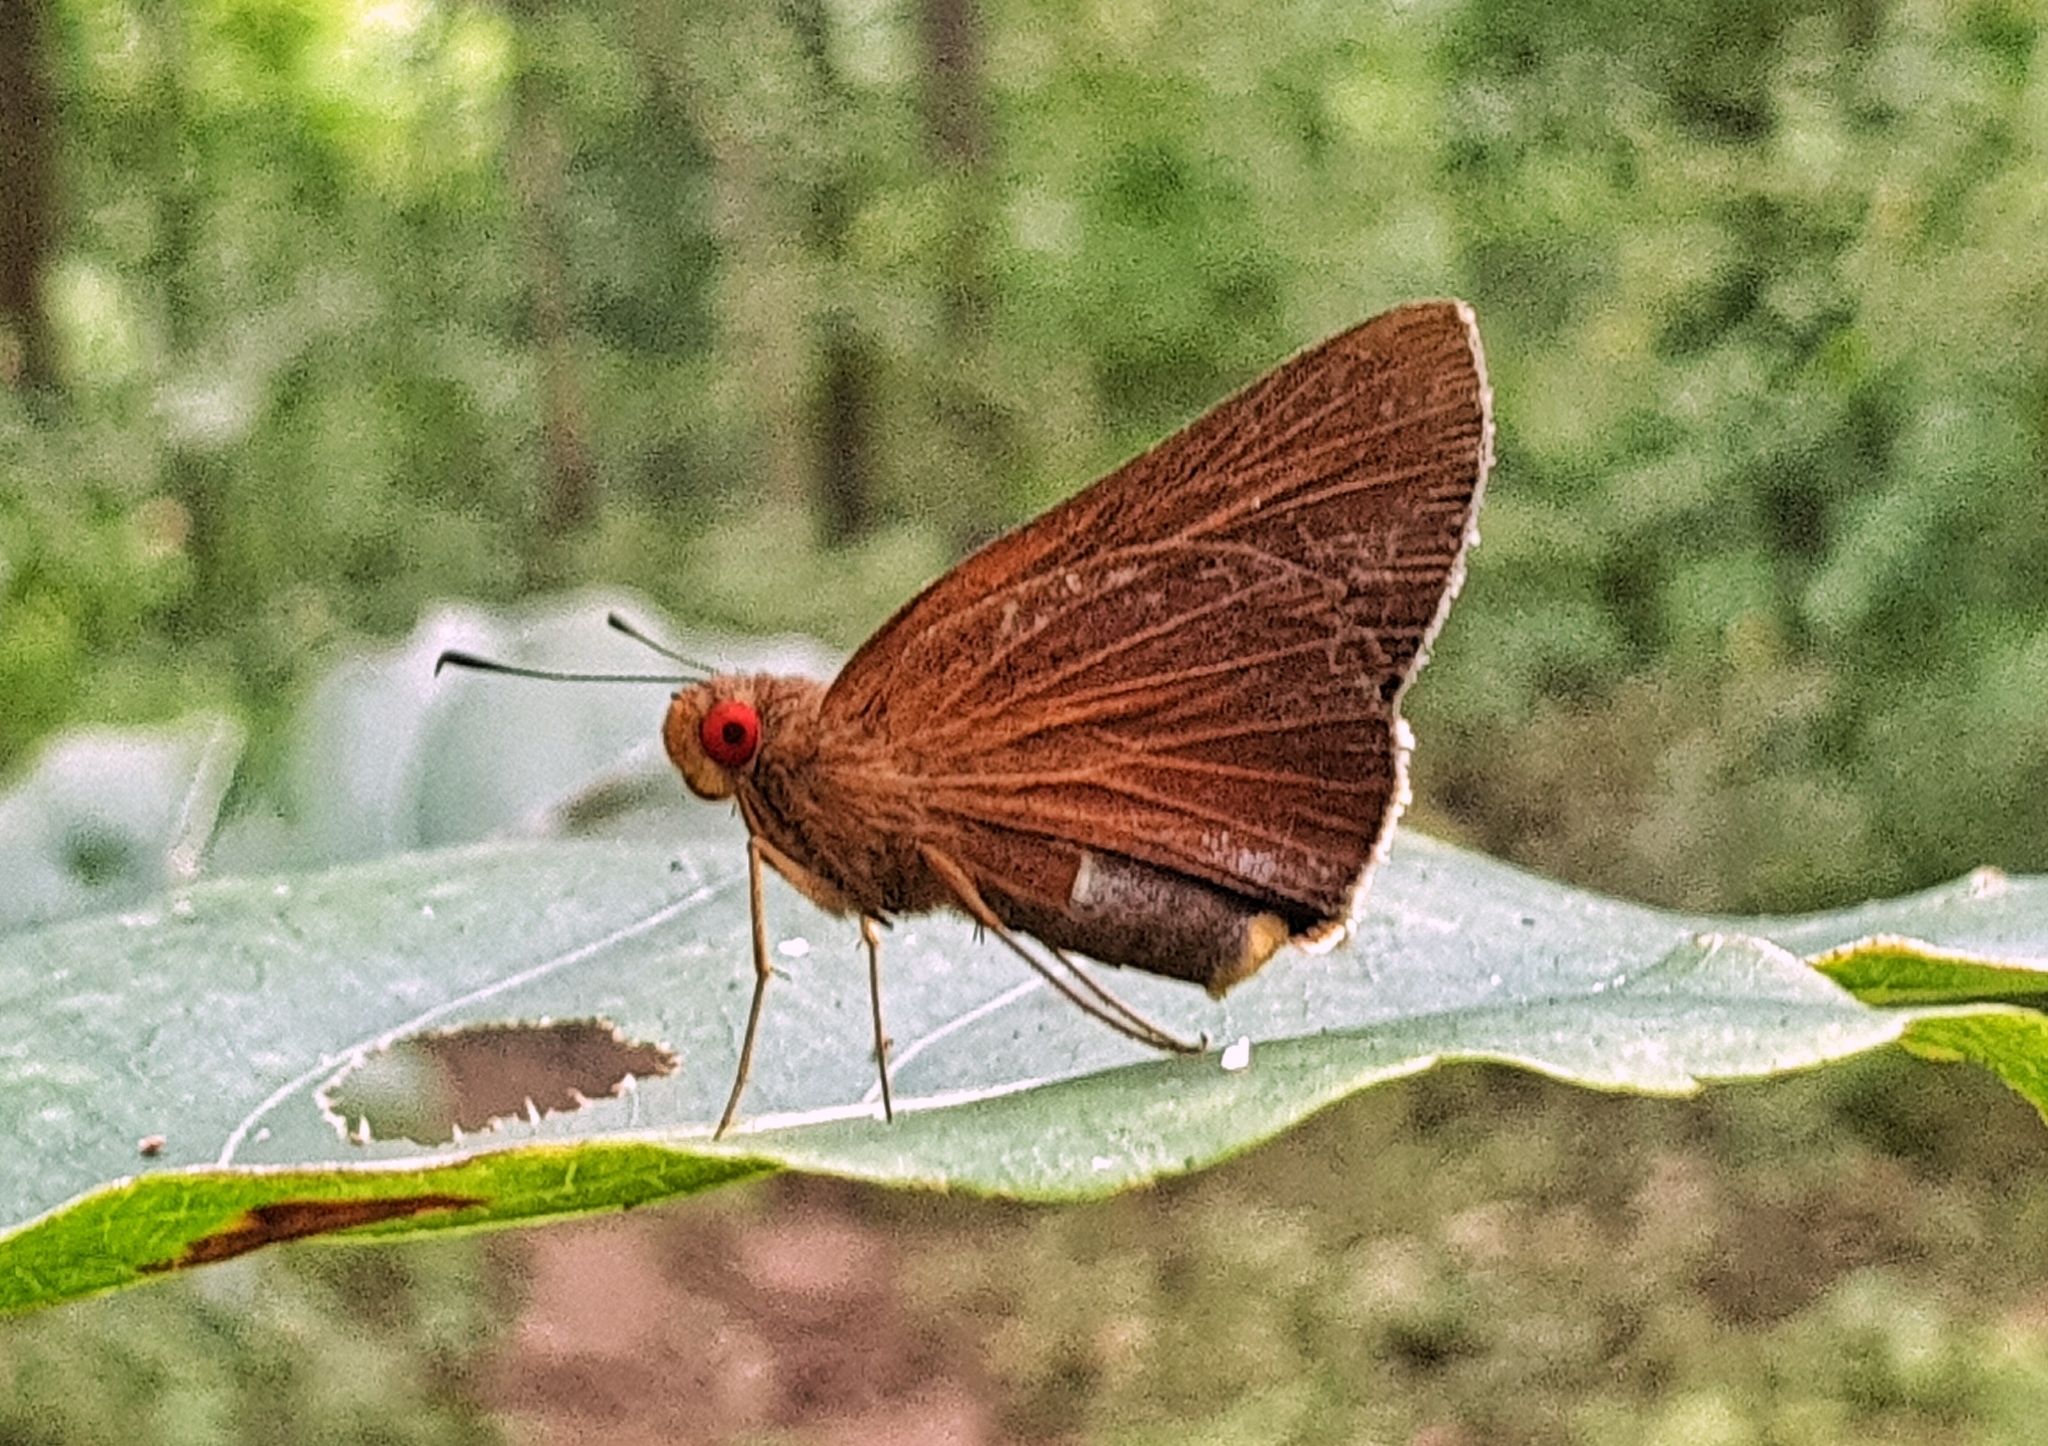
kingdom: Animalia
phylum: Arthropoda
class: Insecta
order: Lepidoptera
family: Hesperiidae
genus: Matapa
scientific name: Matapa aria
